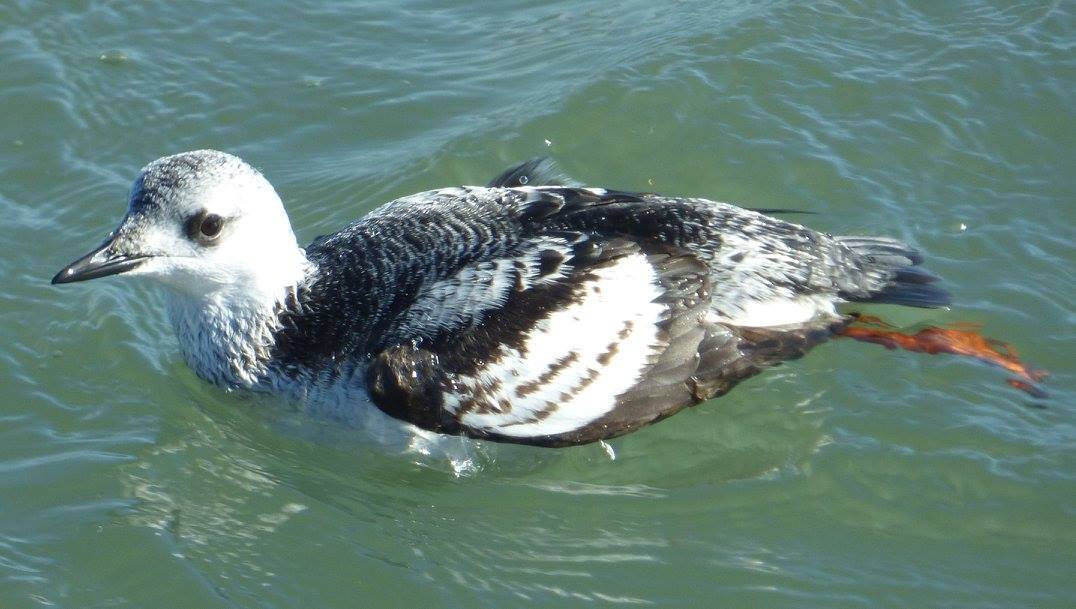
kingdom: Animalia
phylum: Chordata
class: Aves
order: Charadriiformes
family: Alcidae
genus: Cepphus
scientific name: Cepphus grylle
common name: Black guillemot
